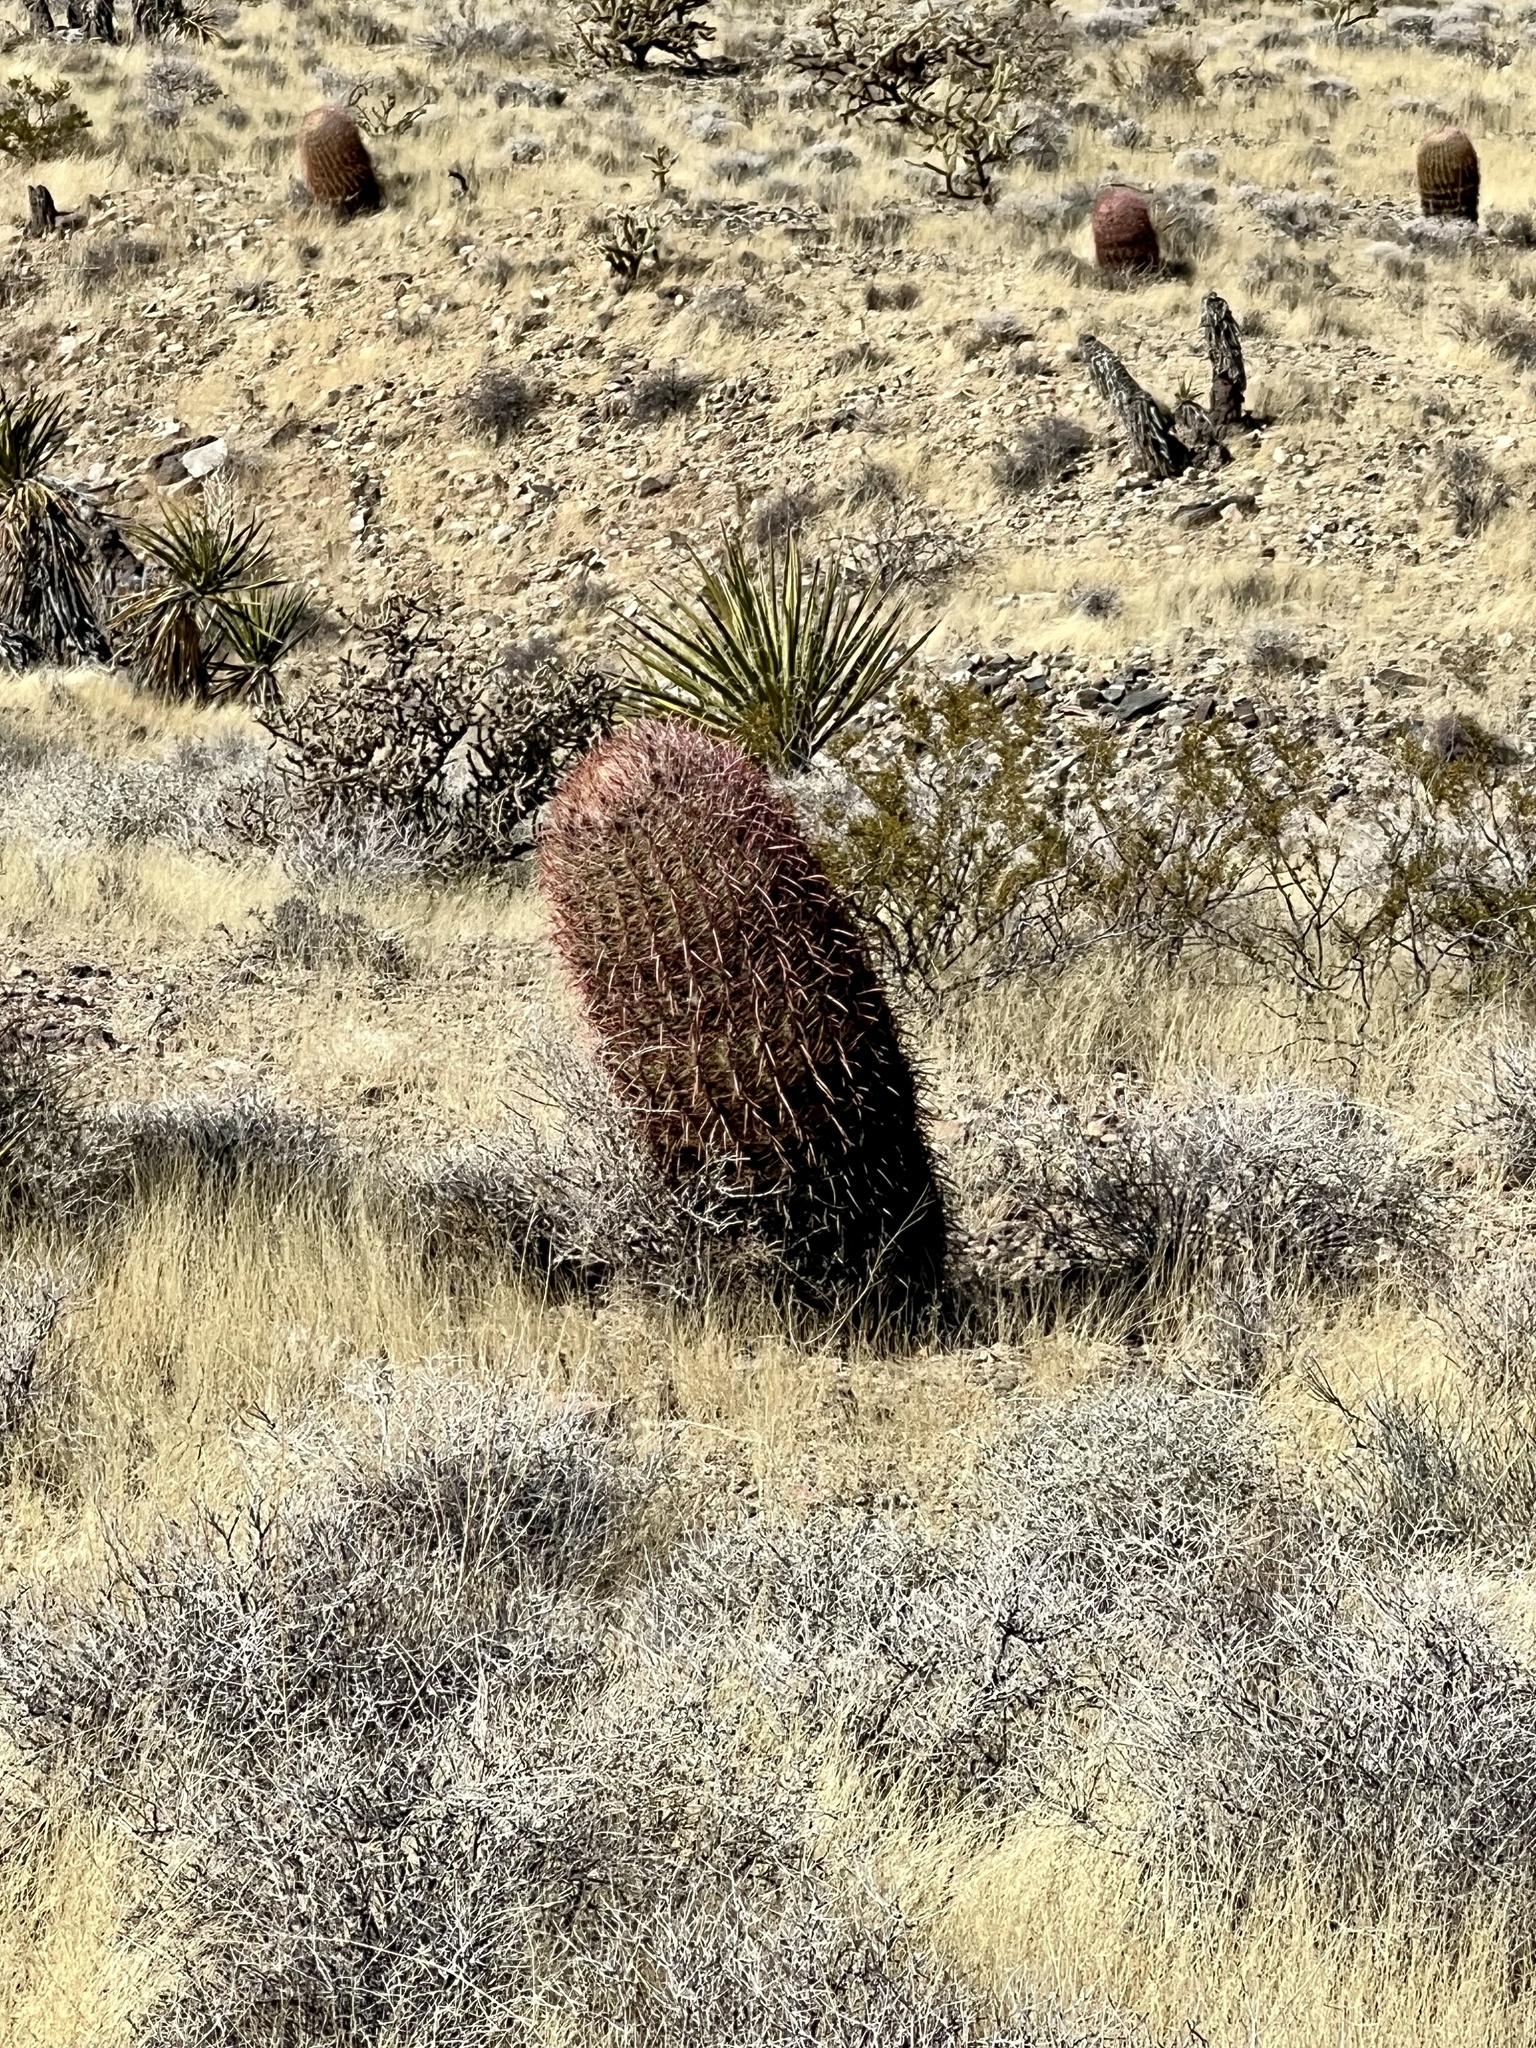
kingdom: Plantae
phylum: Tracheophyta
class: Magnoliopsida
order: Caryophyllales
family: Cactaceae
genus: Ferocactus
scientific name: Ferocactus cylindraceus
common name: California barrel cactus
